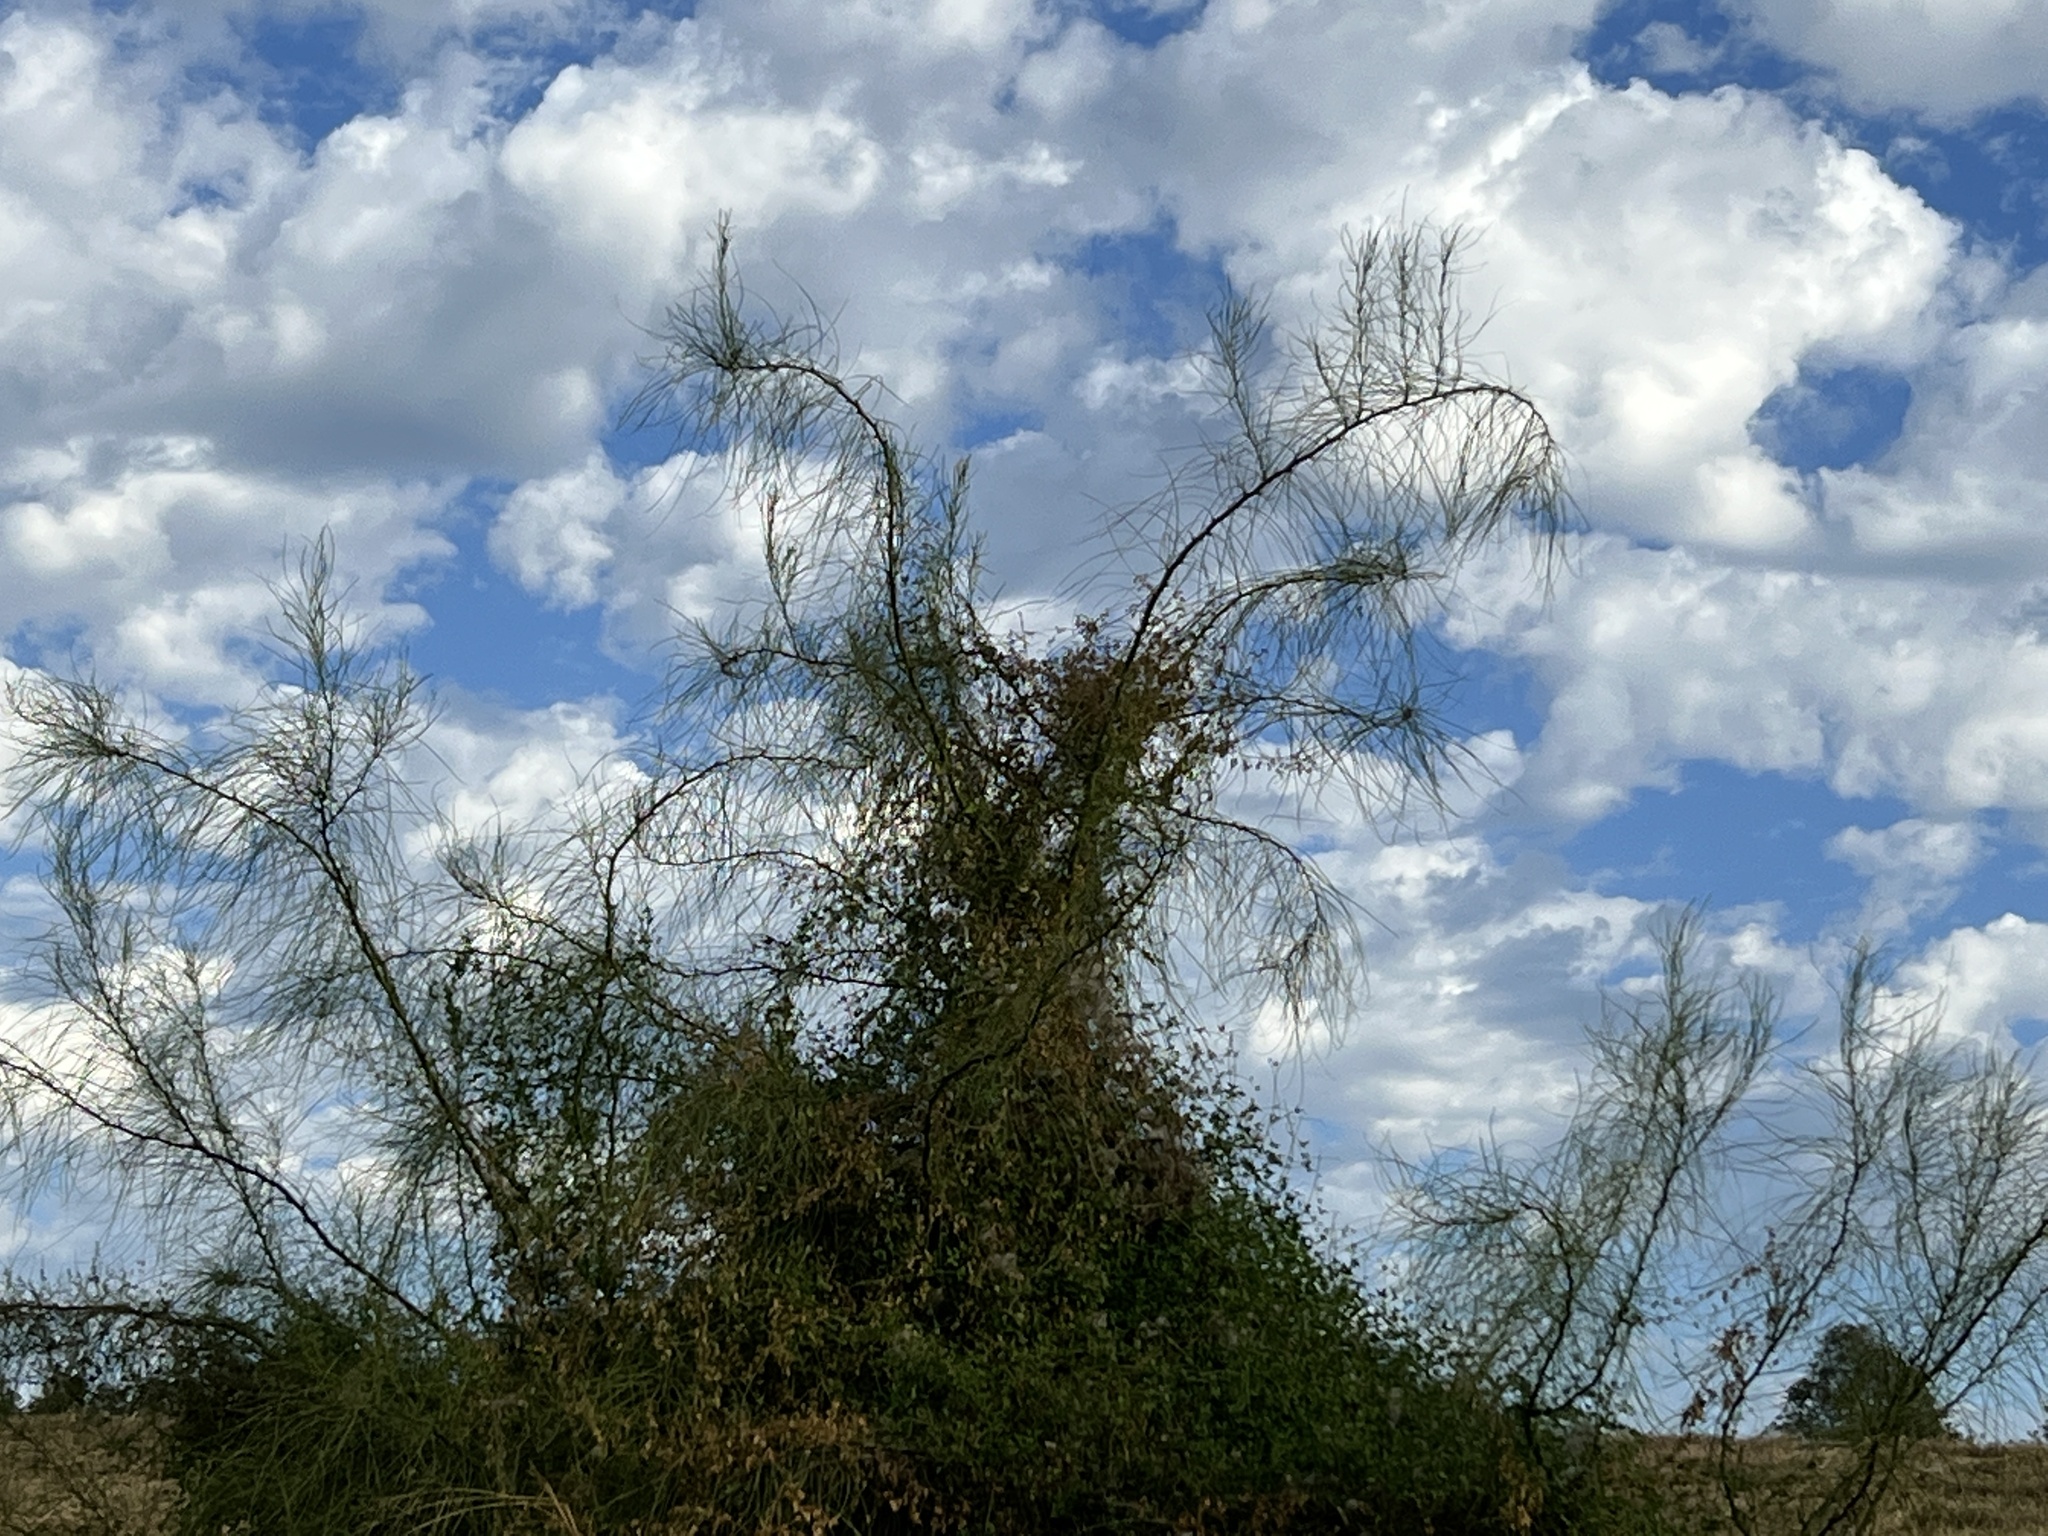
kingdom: Plantae
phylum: Tracheophyta
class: Magnoliopsida
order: Fabales
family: Fabaceae
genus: Parkinsonia
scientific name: Parkinsonia aculeata
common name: Jerusalem thorn
